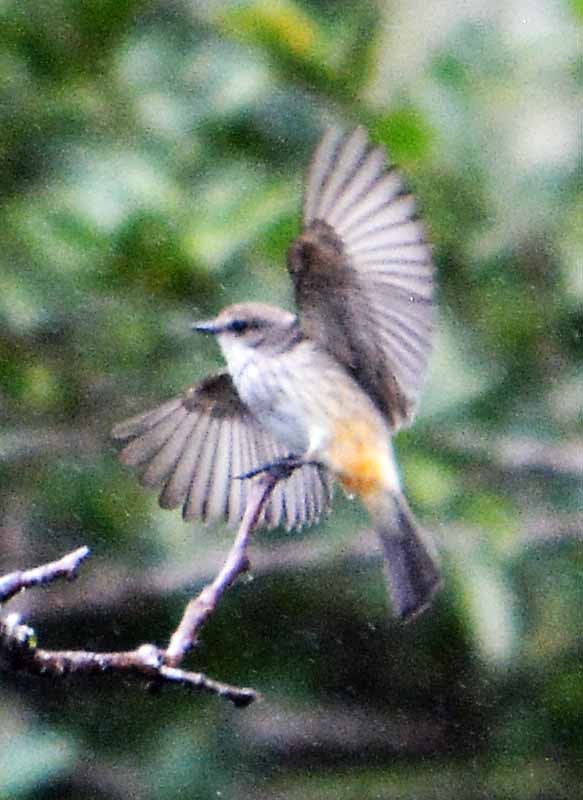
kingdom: Animalia
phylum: Chordata
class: Aves
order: Passeriformes
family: Tyrannidae
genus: Pyrocephalus
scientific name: Pyrocephalus rubinus
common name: Vermilion flycatcher
